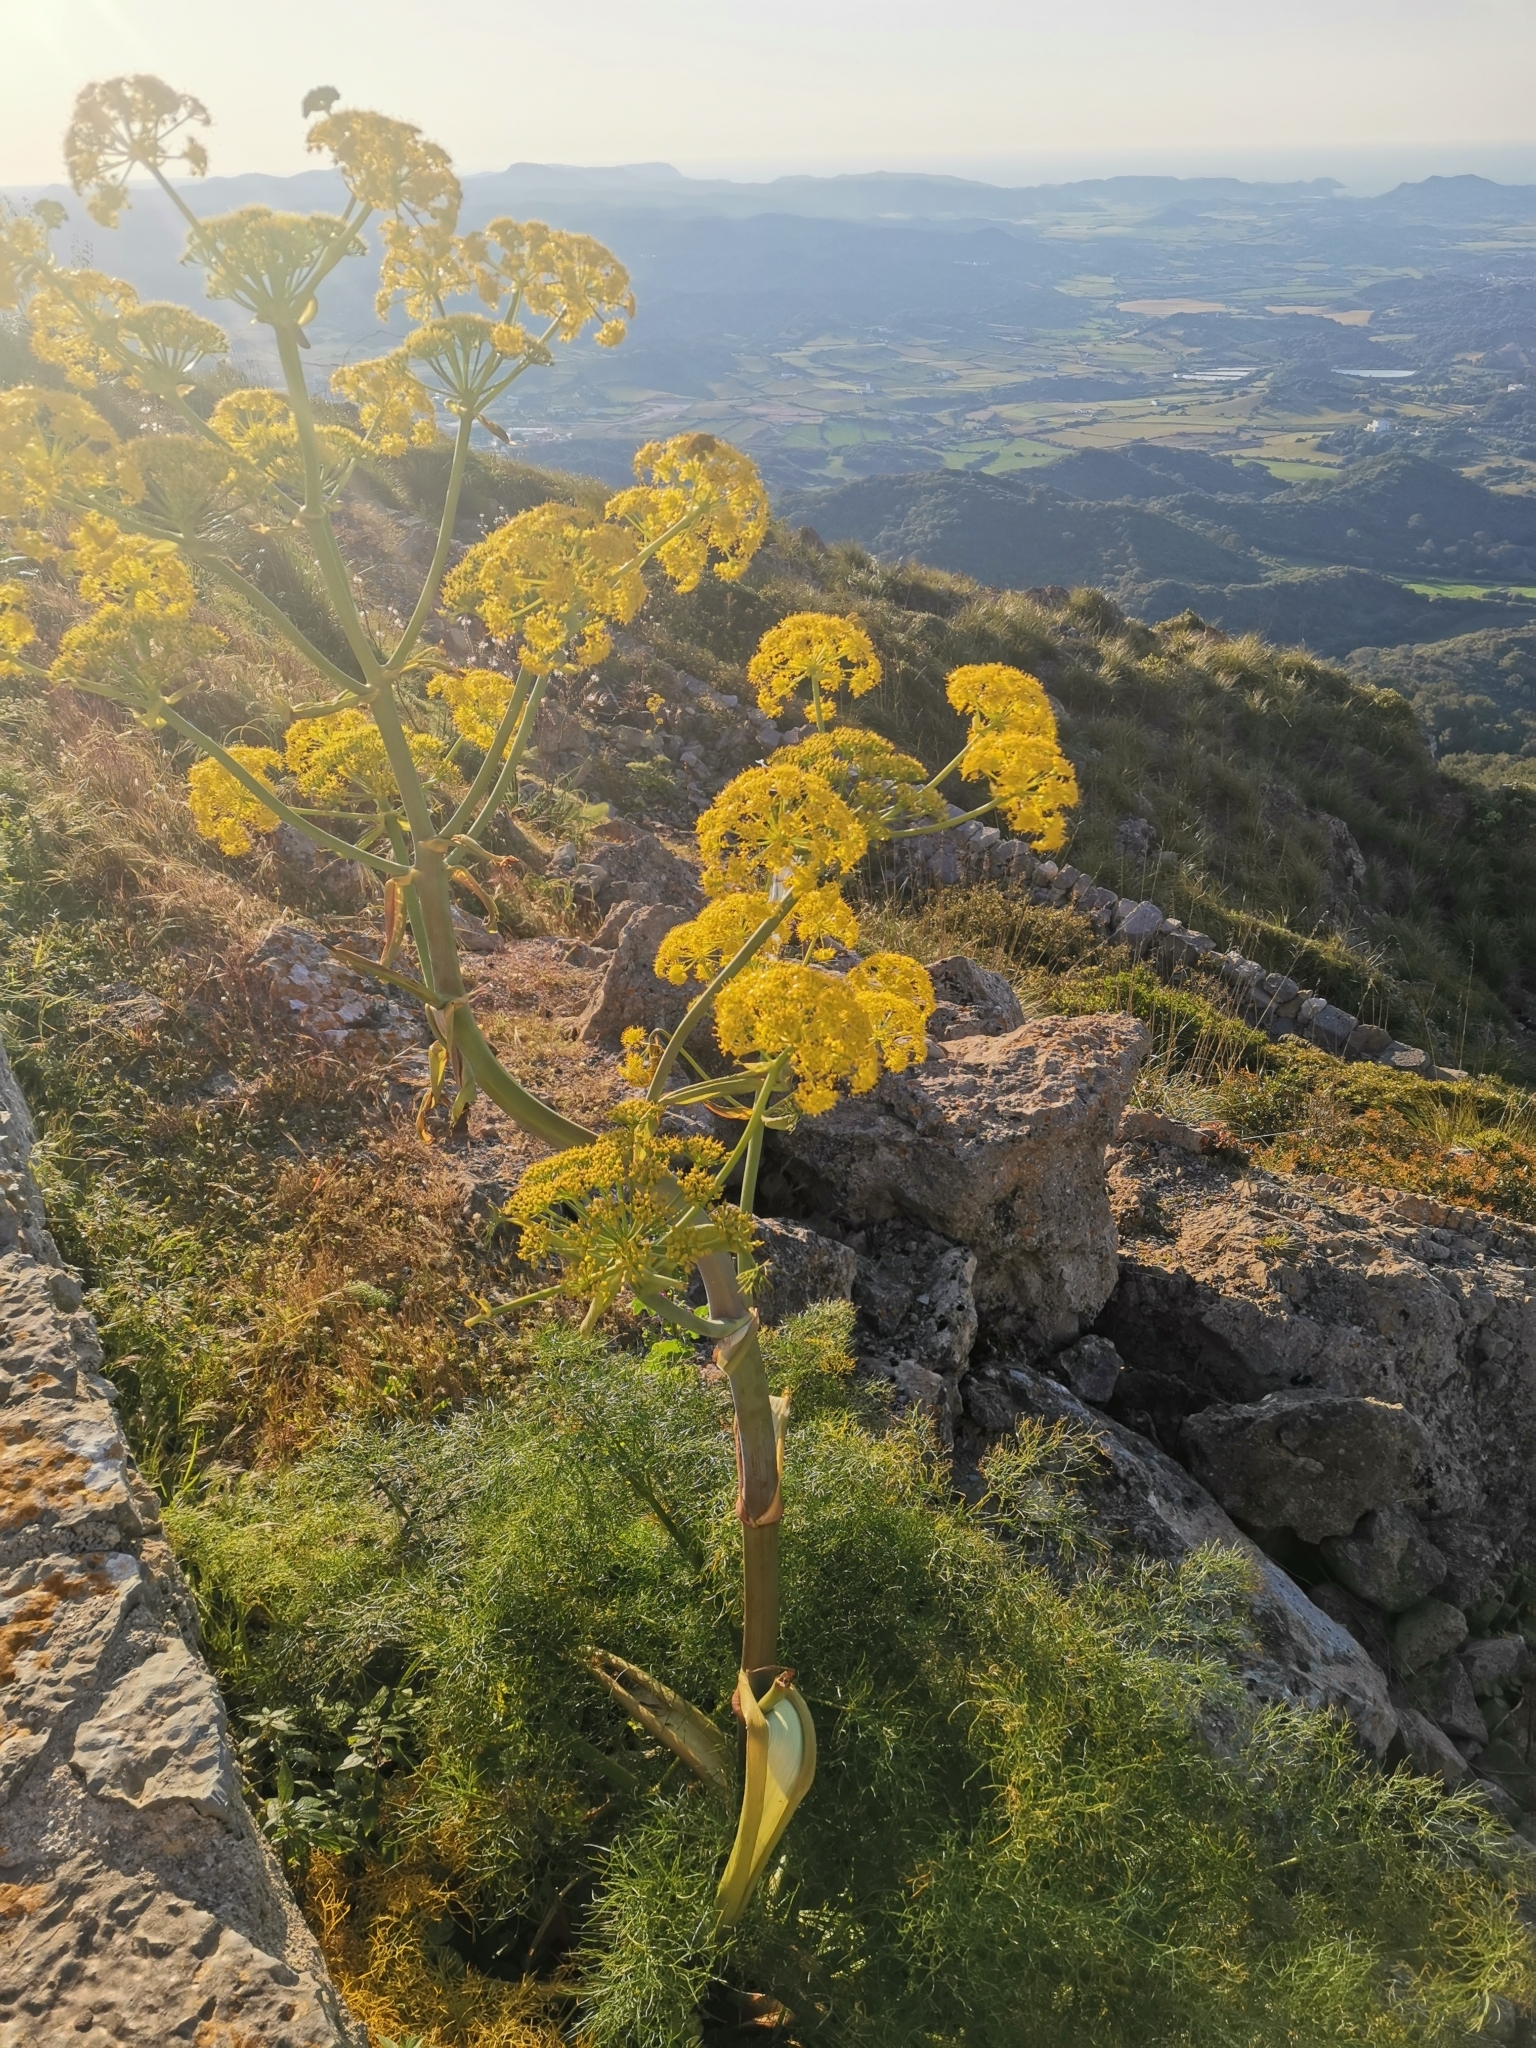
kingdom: Plantae
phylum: Tracheophyta
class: Magnoliopsida
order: Apiales
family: Apiaceae
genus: Ferula
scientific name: Ferula communis
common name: Giant fennel
